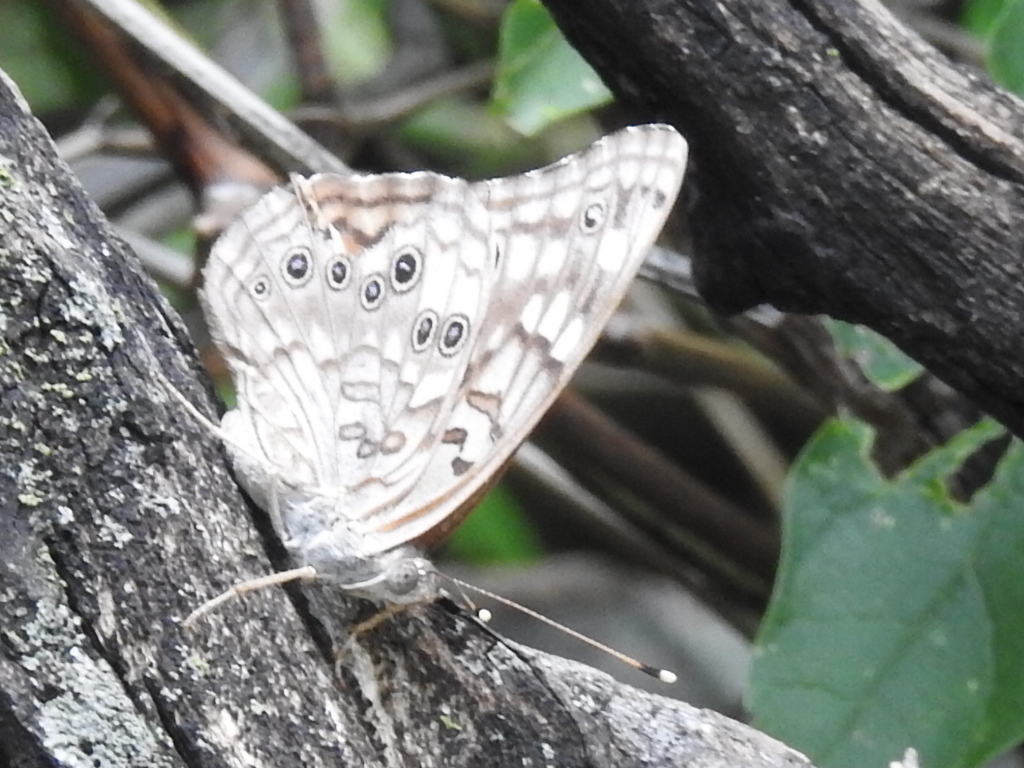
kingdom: Animalia
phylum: Arthropoda
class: Insecta
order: Lepidoptera
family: Nymphalidae
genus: Asterocampa
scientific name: Asterocampa celtis
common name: Hackberry emperor
